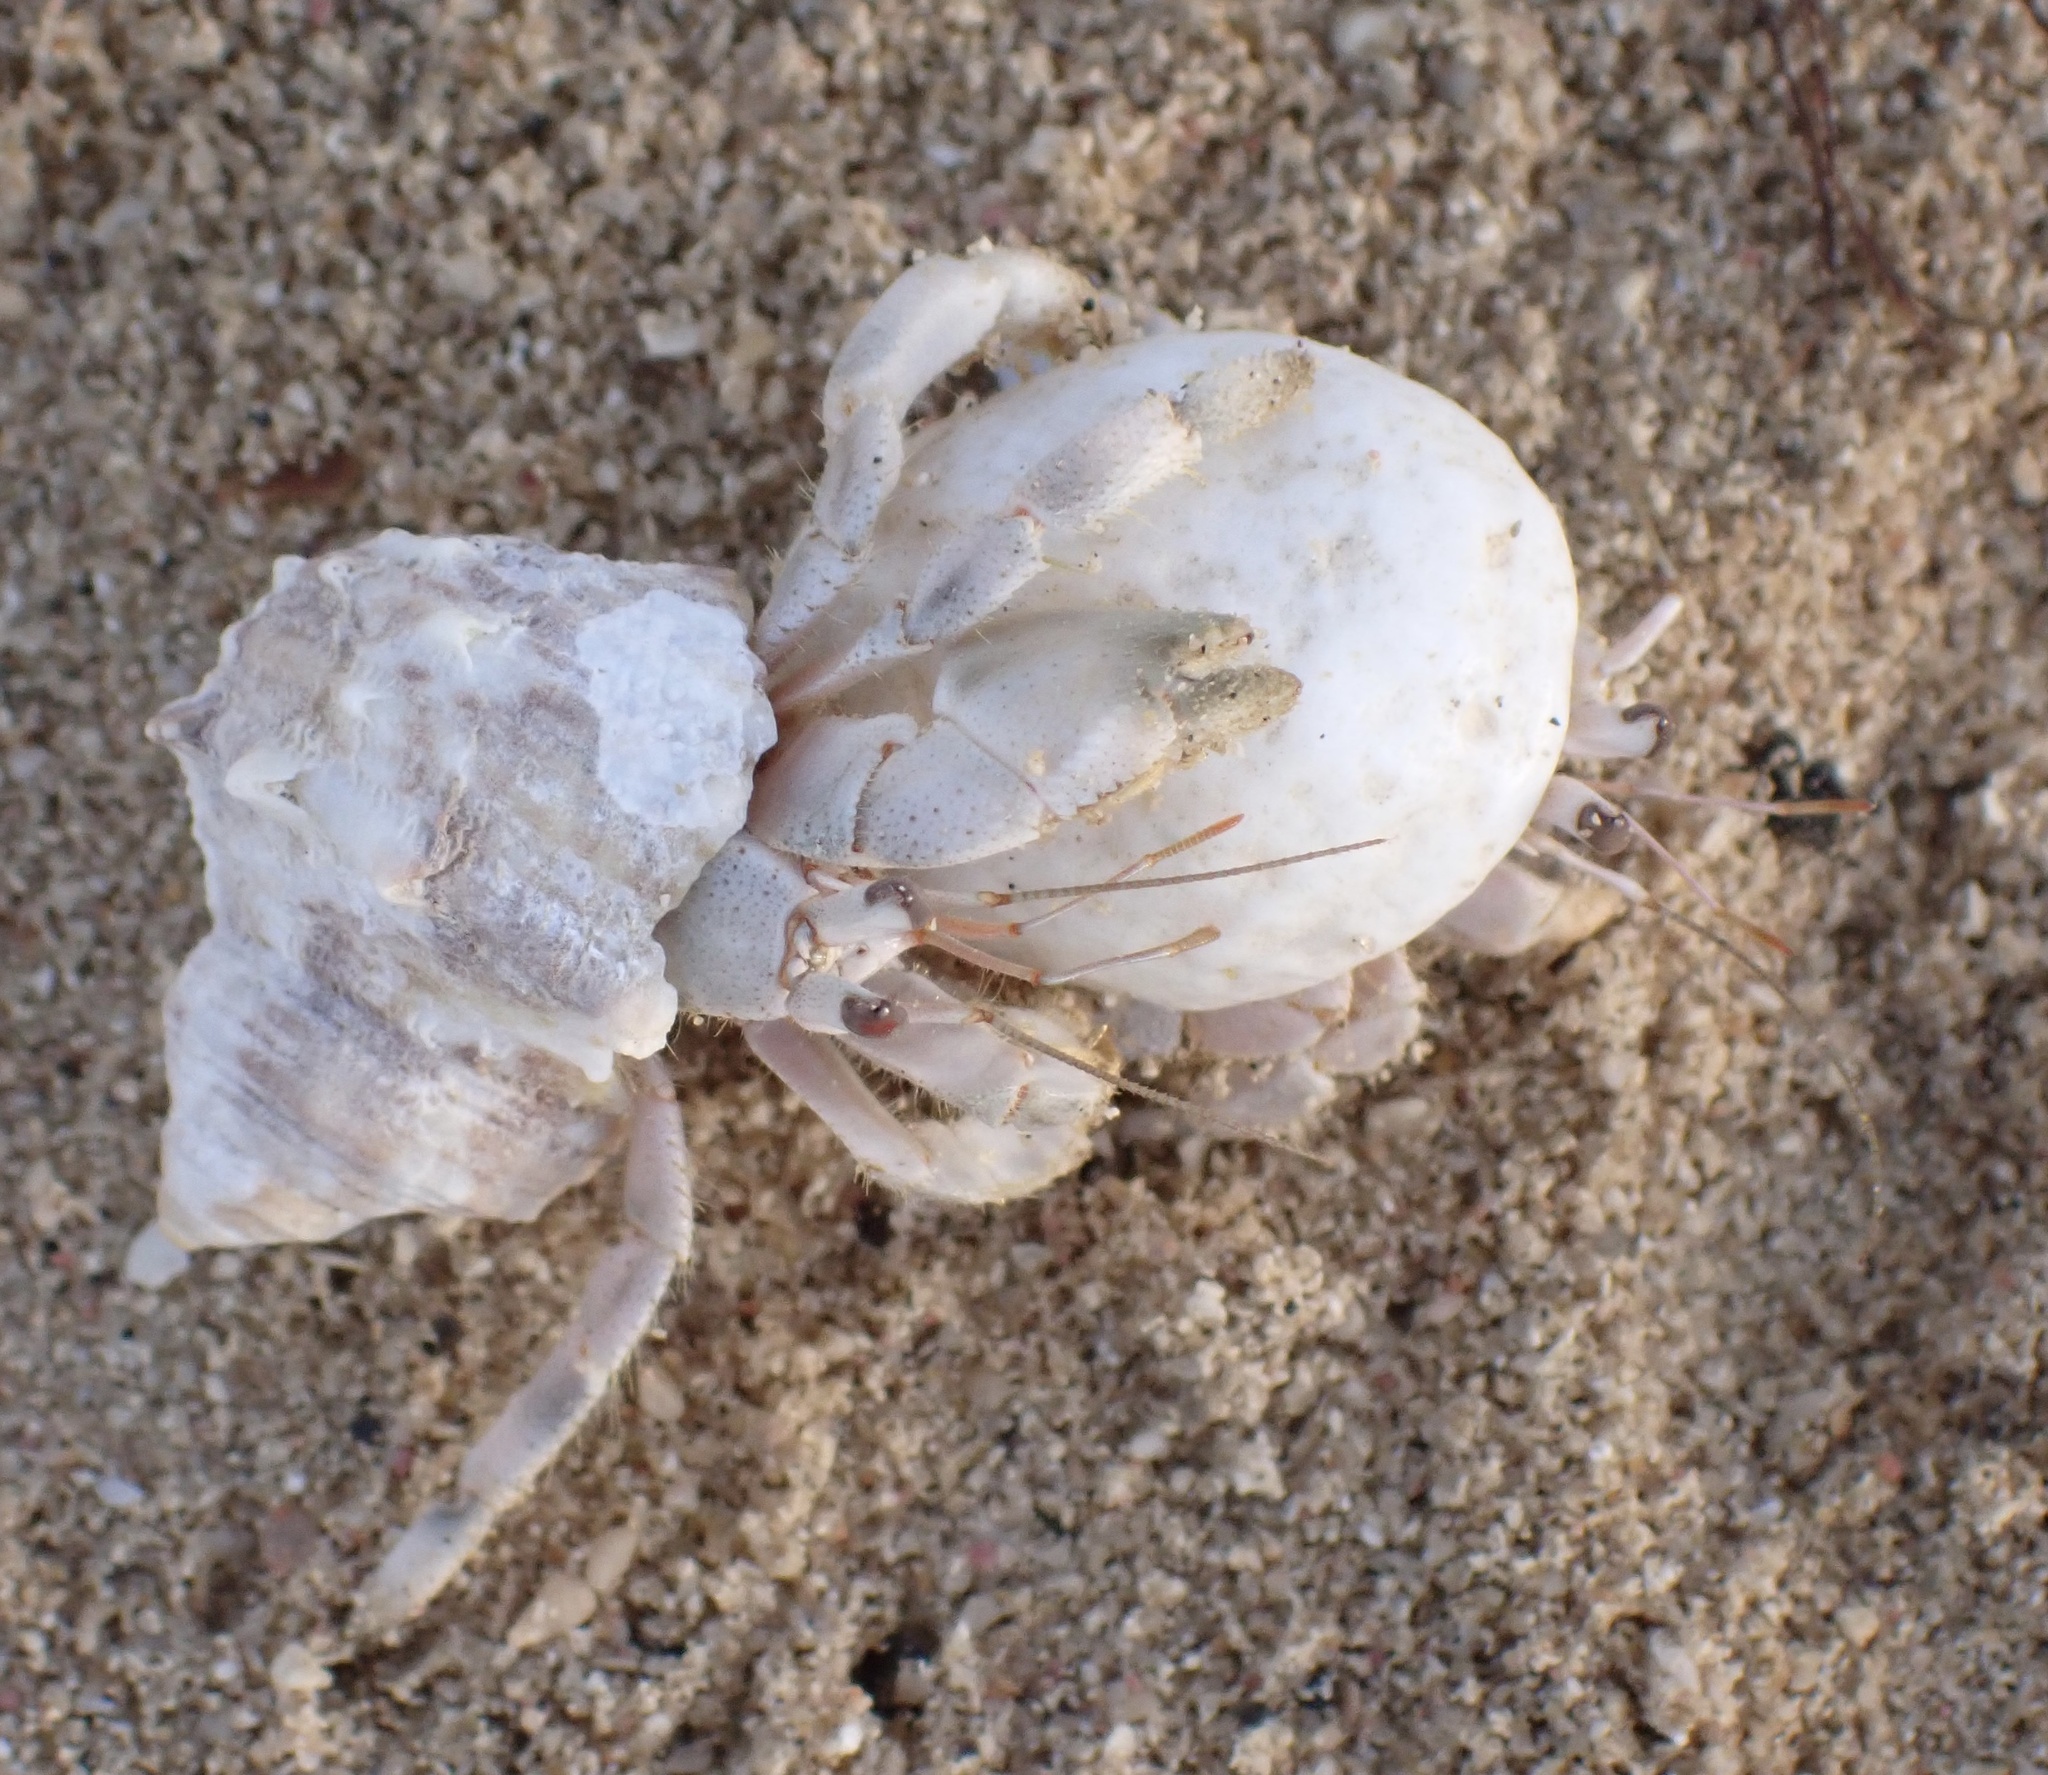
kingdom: Animalia
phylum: Arthropoda
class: Malacostraca
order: Decapoda
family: Coenobitidae
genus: Coenobita
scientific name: Coenobita scaevola
